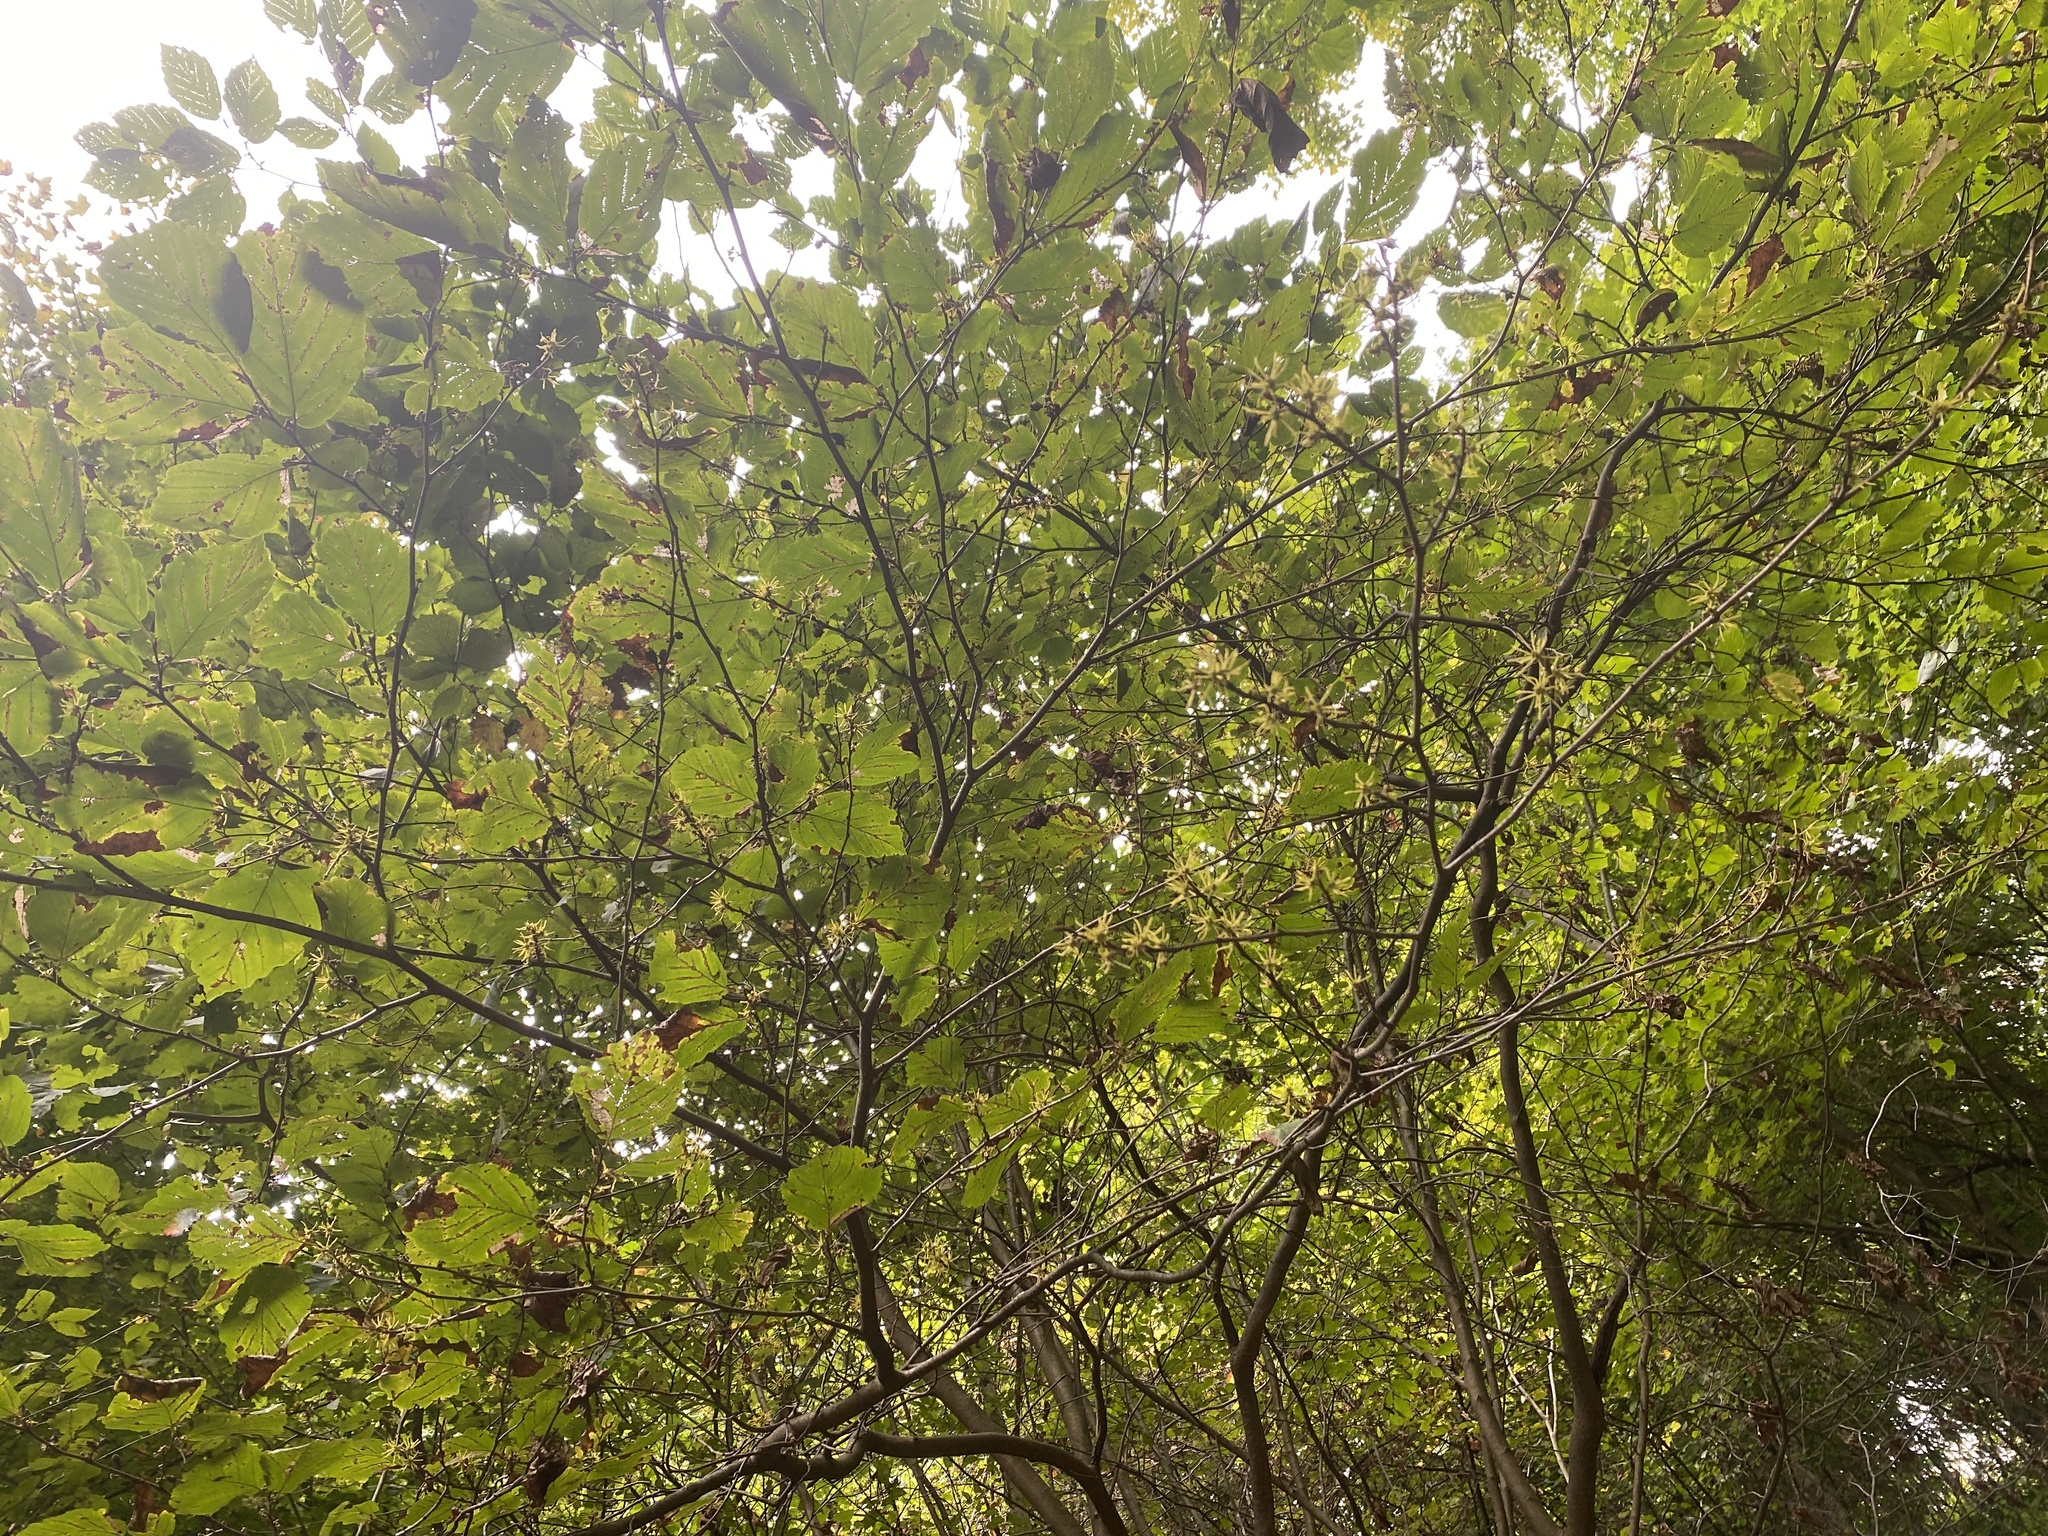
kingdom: Plantae
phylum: Tracheophyta
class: Magnoliopsida
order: Saxifragales
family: Hamamelidaceae
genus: Hamamelis
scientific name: Hamamelis virginiana
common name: Witch-hazel
